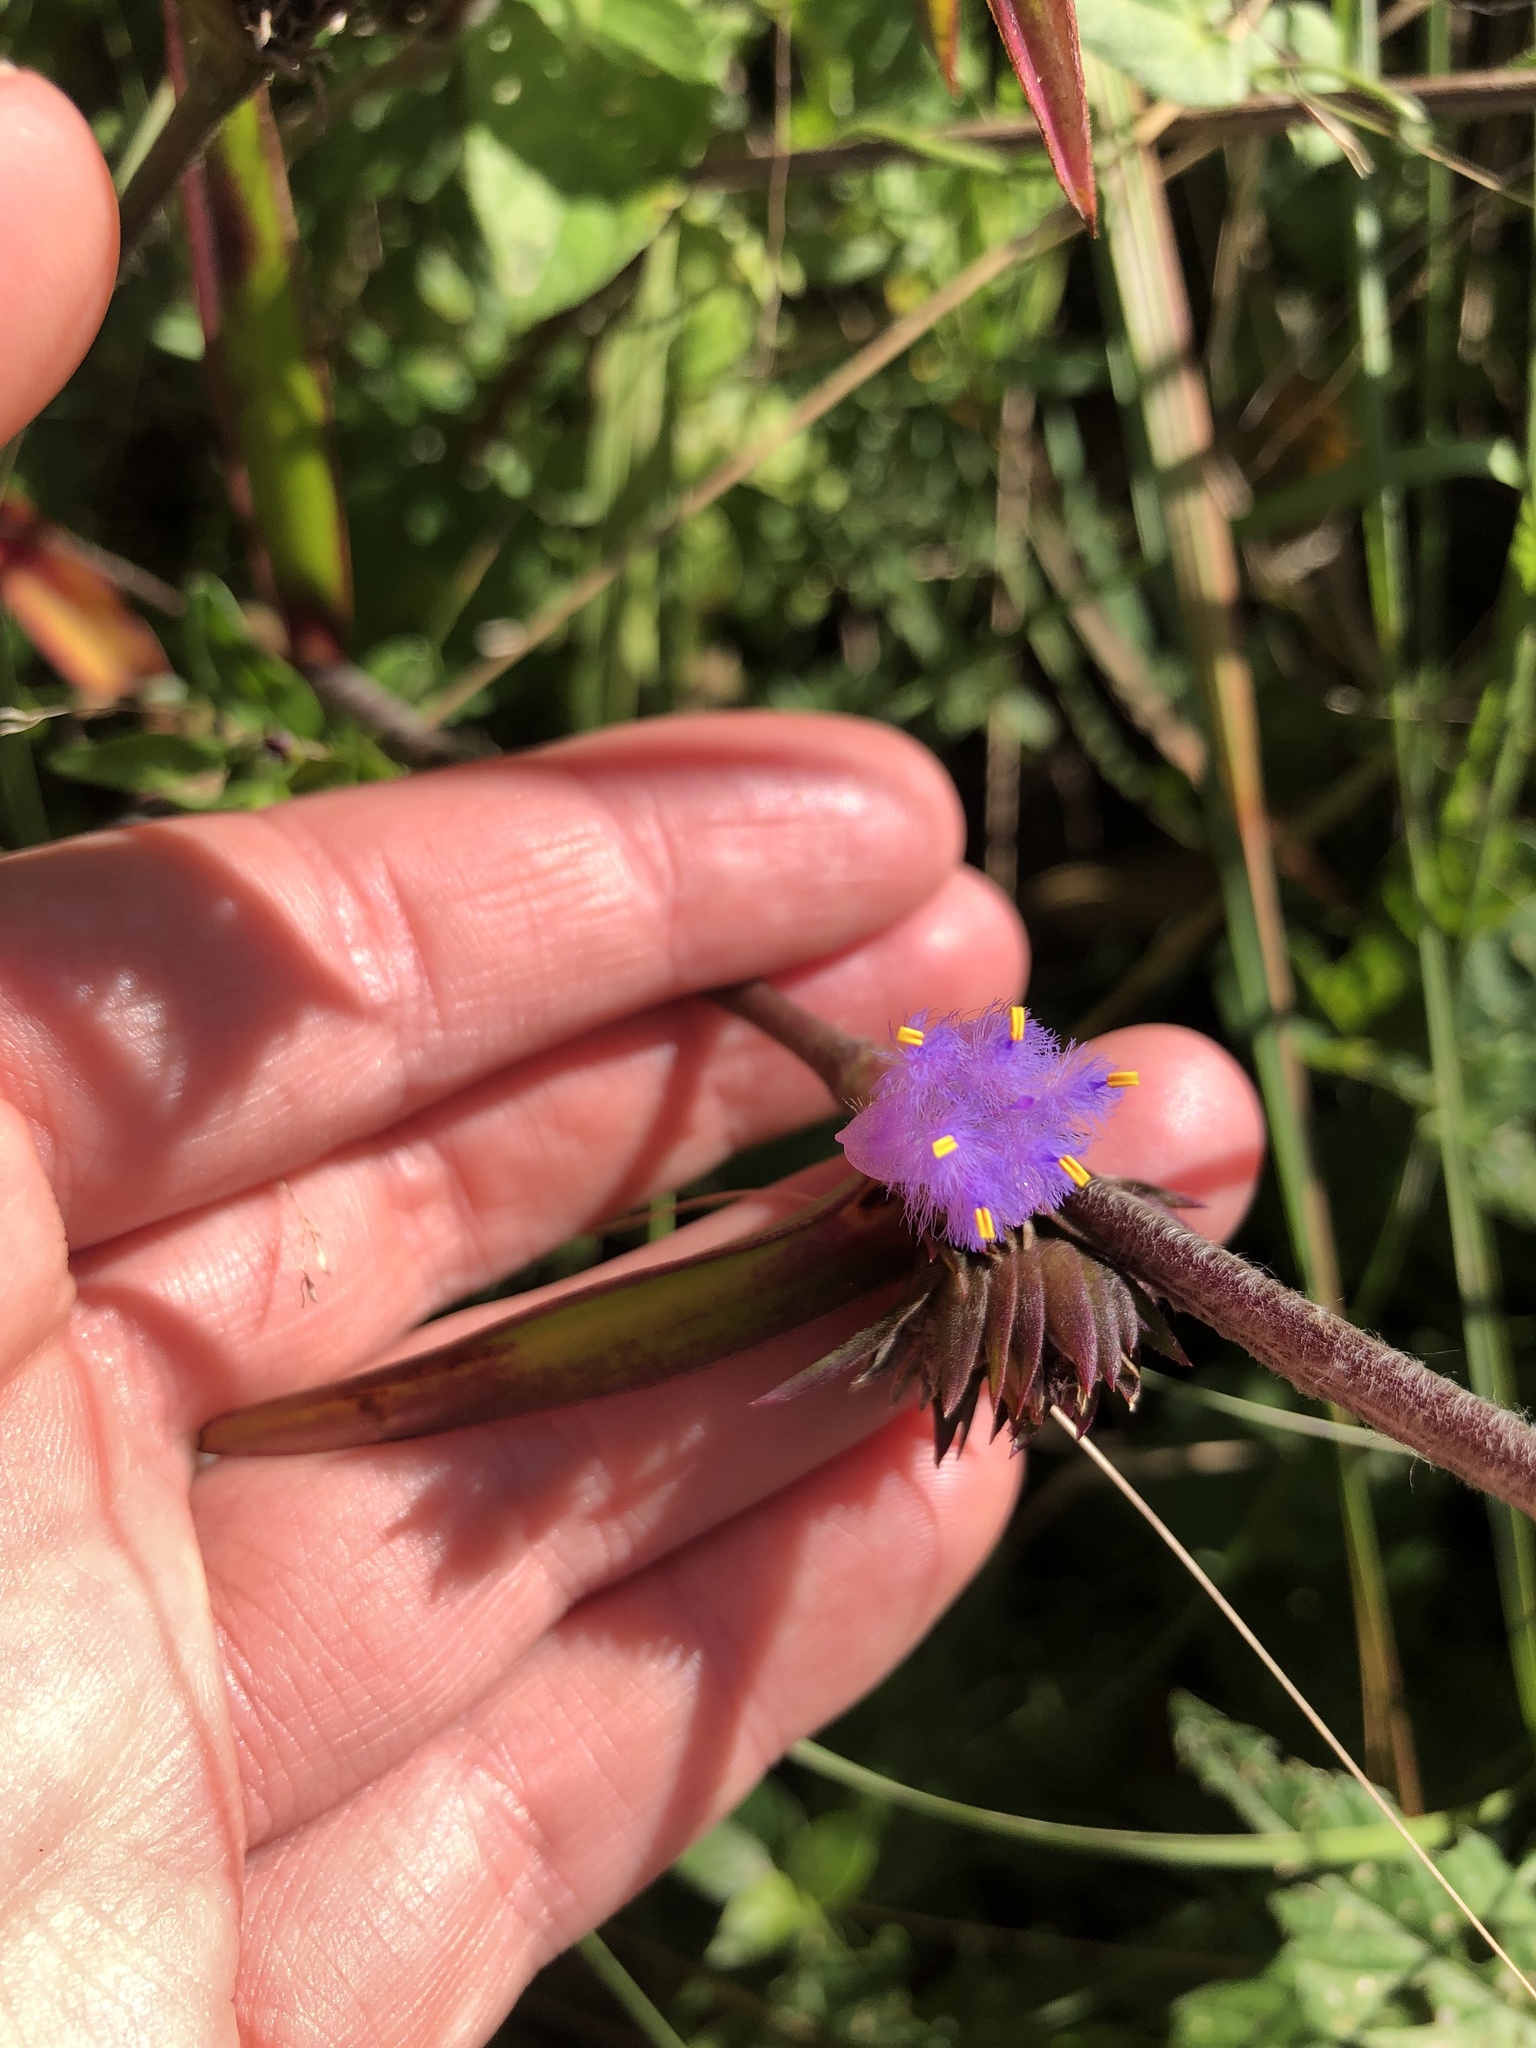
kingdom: Plantae
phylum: Tracheophyta
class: Liliopsida
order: Commelinales
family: Commelinaceae
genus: Cyanotis
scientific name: Cyanotis speciosa
